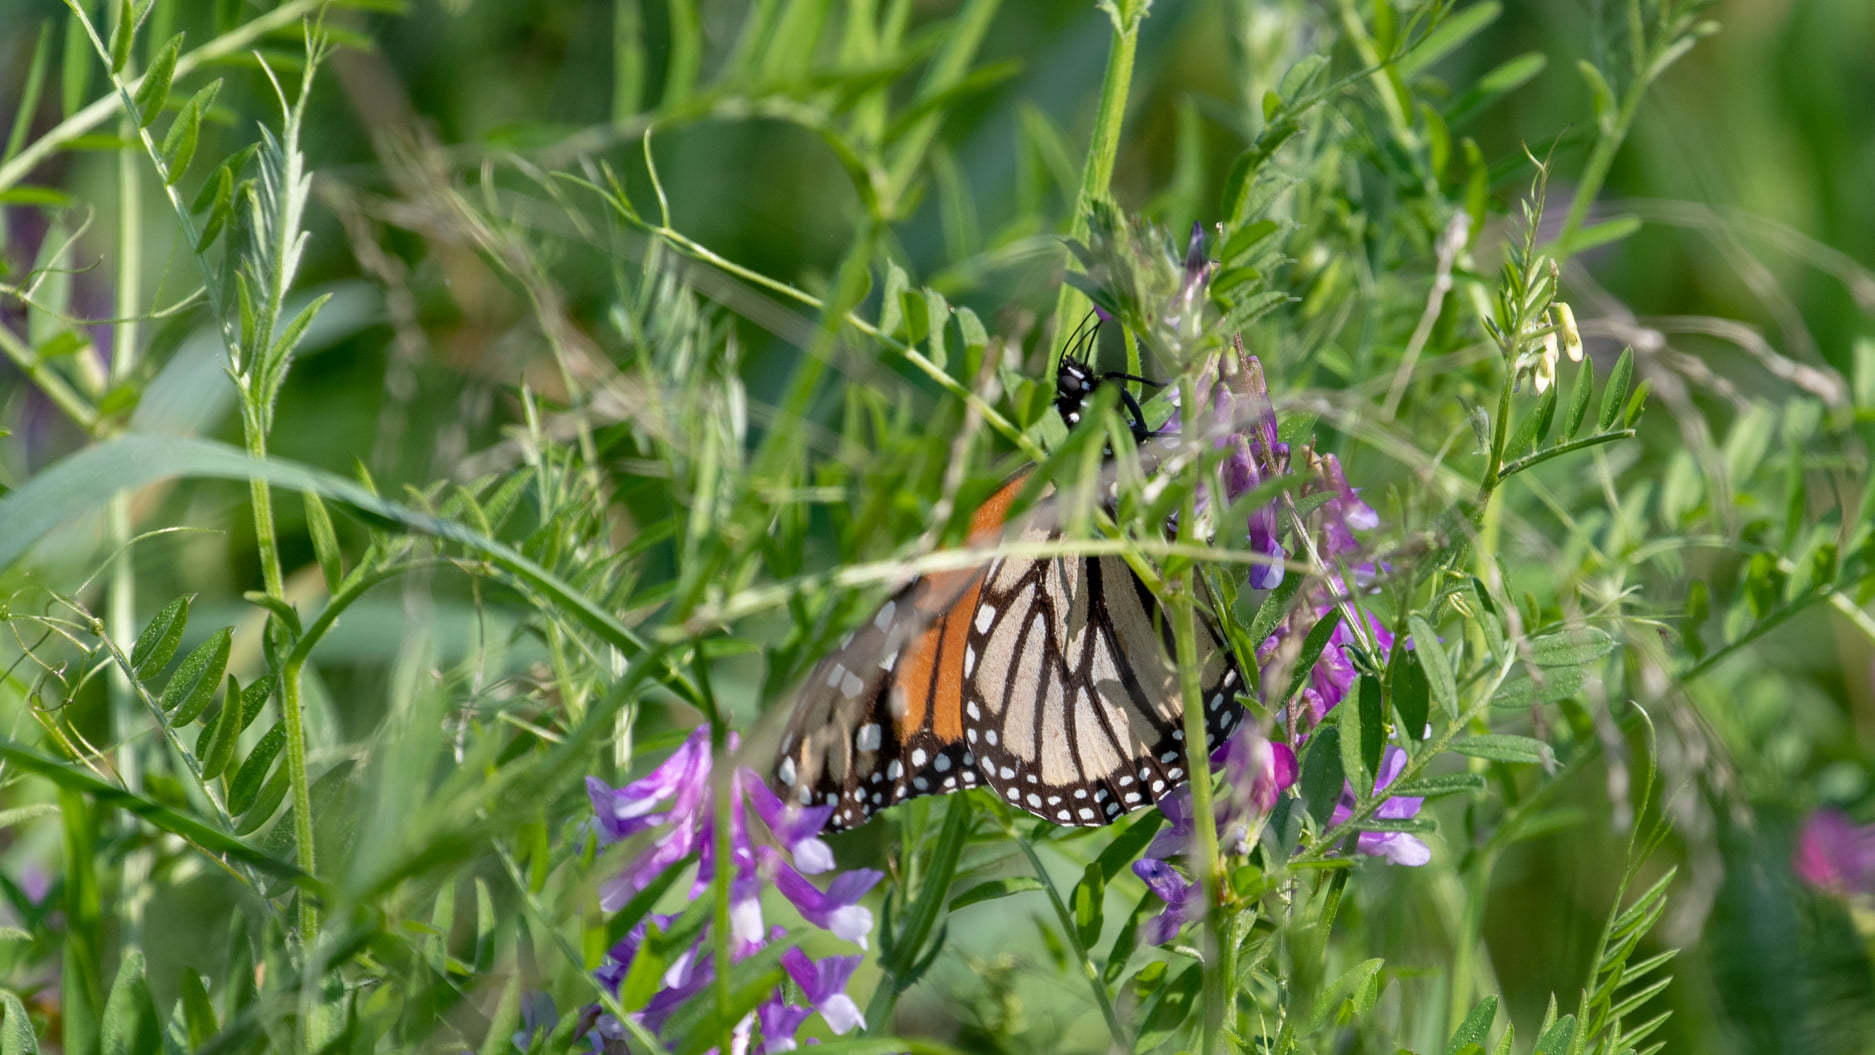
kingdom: Animalia
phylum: Arthropoda
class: Insecta
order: Lepidoptera
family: Nymphalidae
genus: Danaus
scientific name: Danaus plexippus
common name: Monarch
